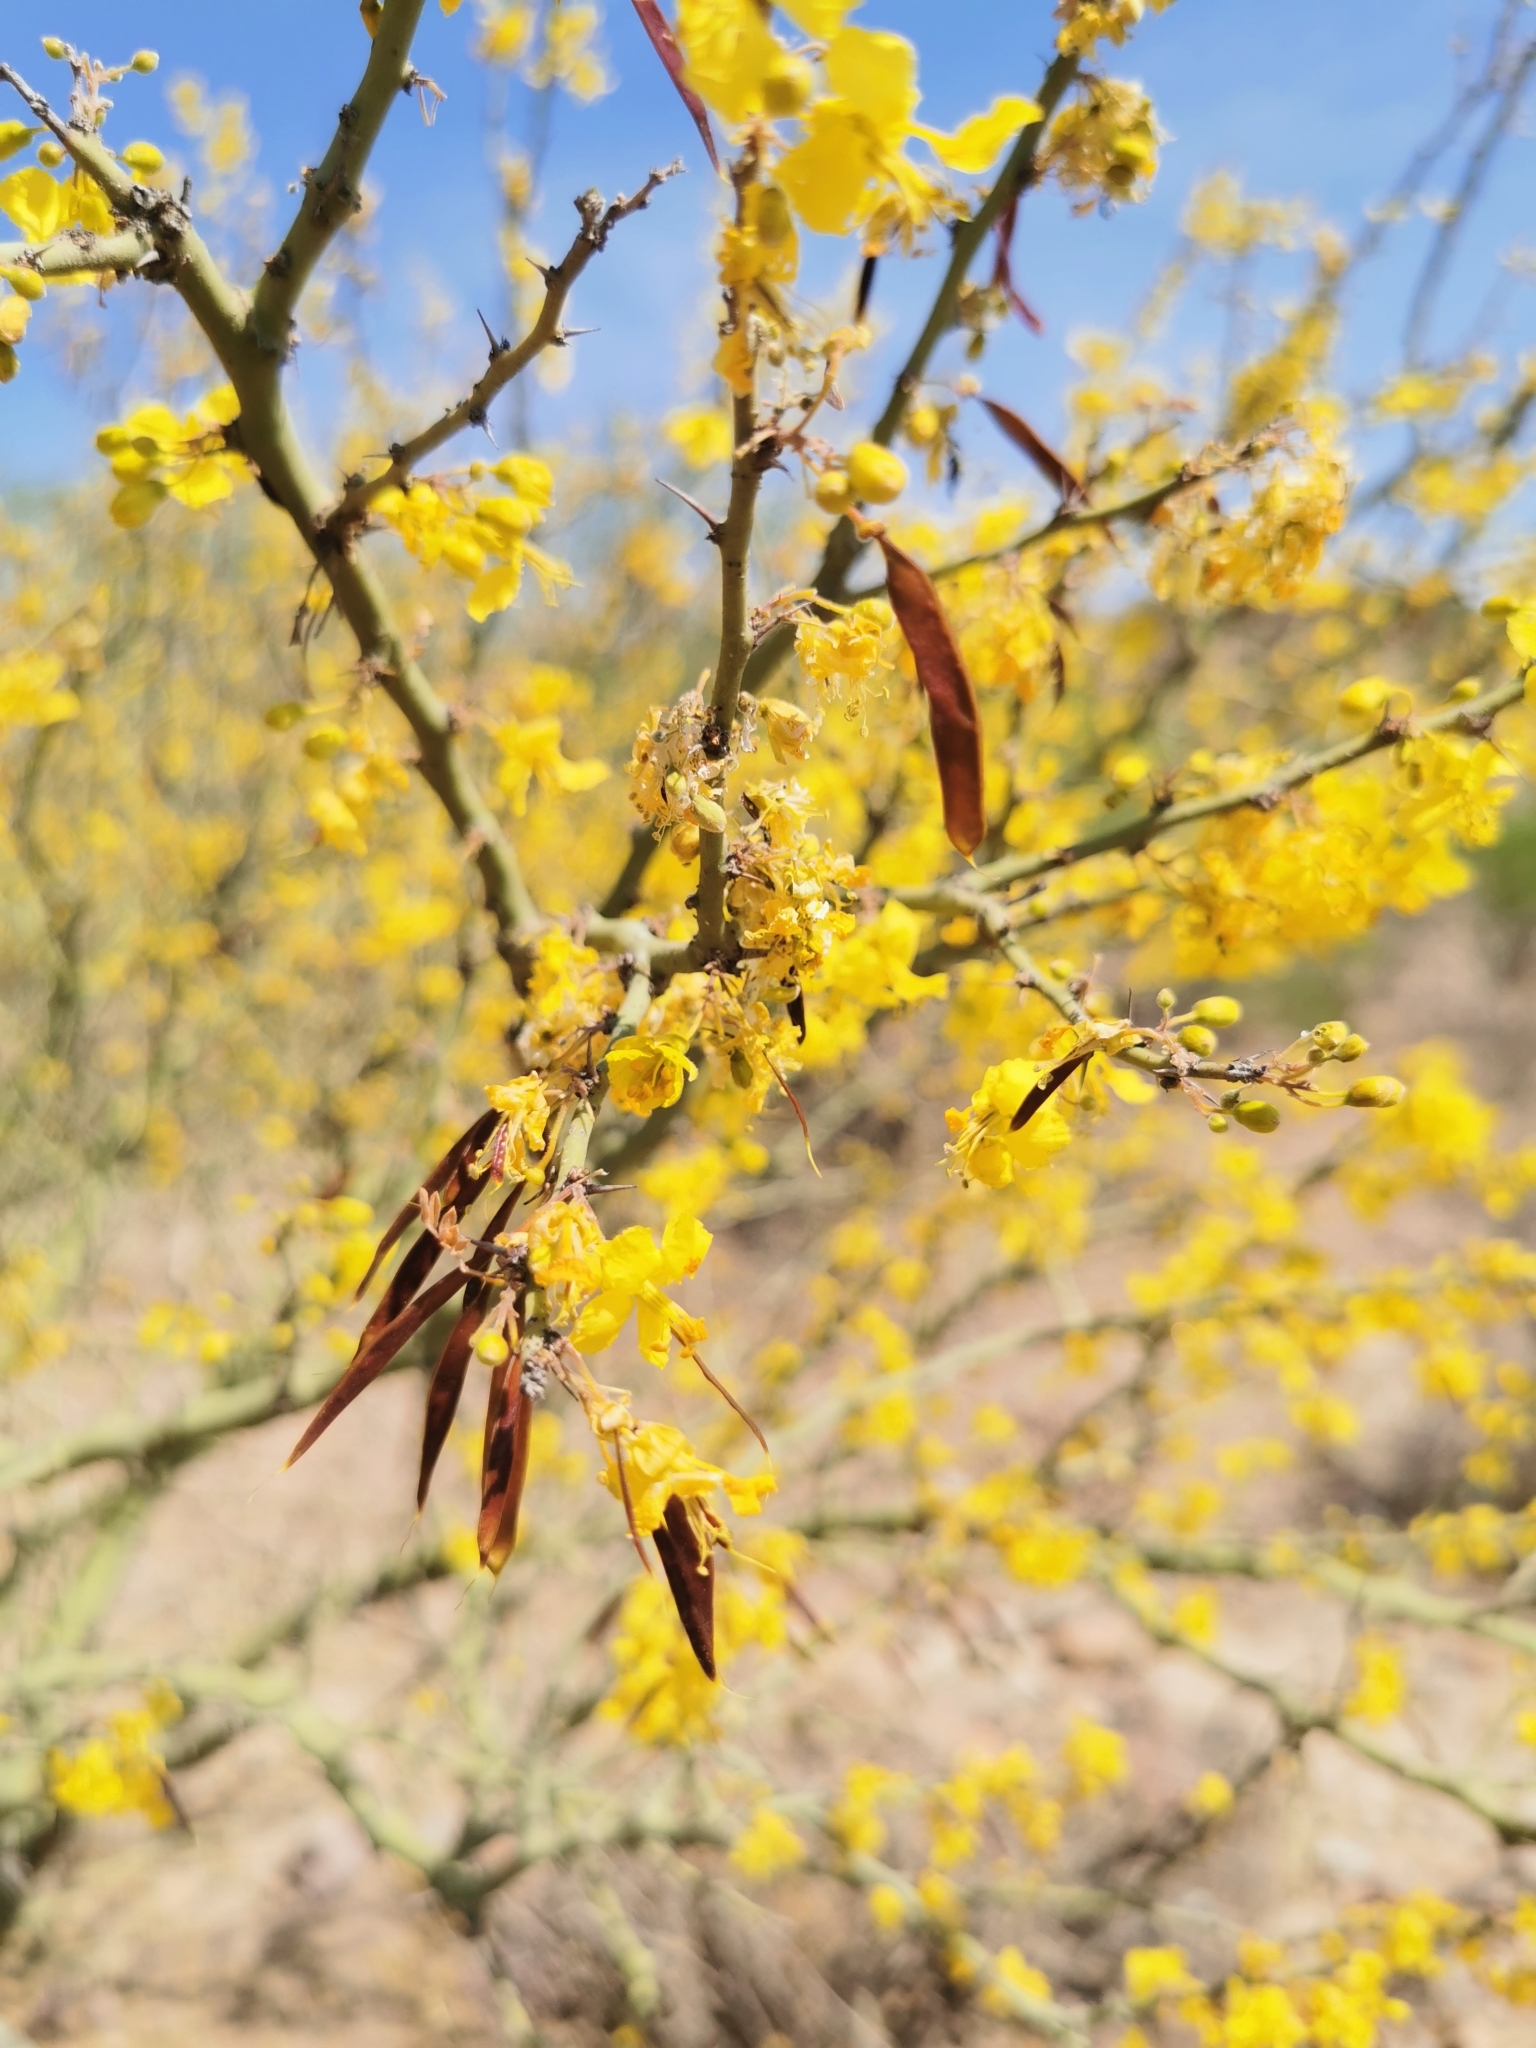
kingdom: Plantae
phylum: Tracheophyta
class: Magnoliopsida
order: Fabales
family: Fabaceae
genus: Parkinsonia
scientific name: Parkinsonia praecox
